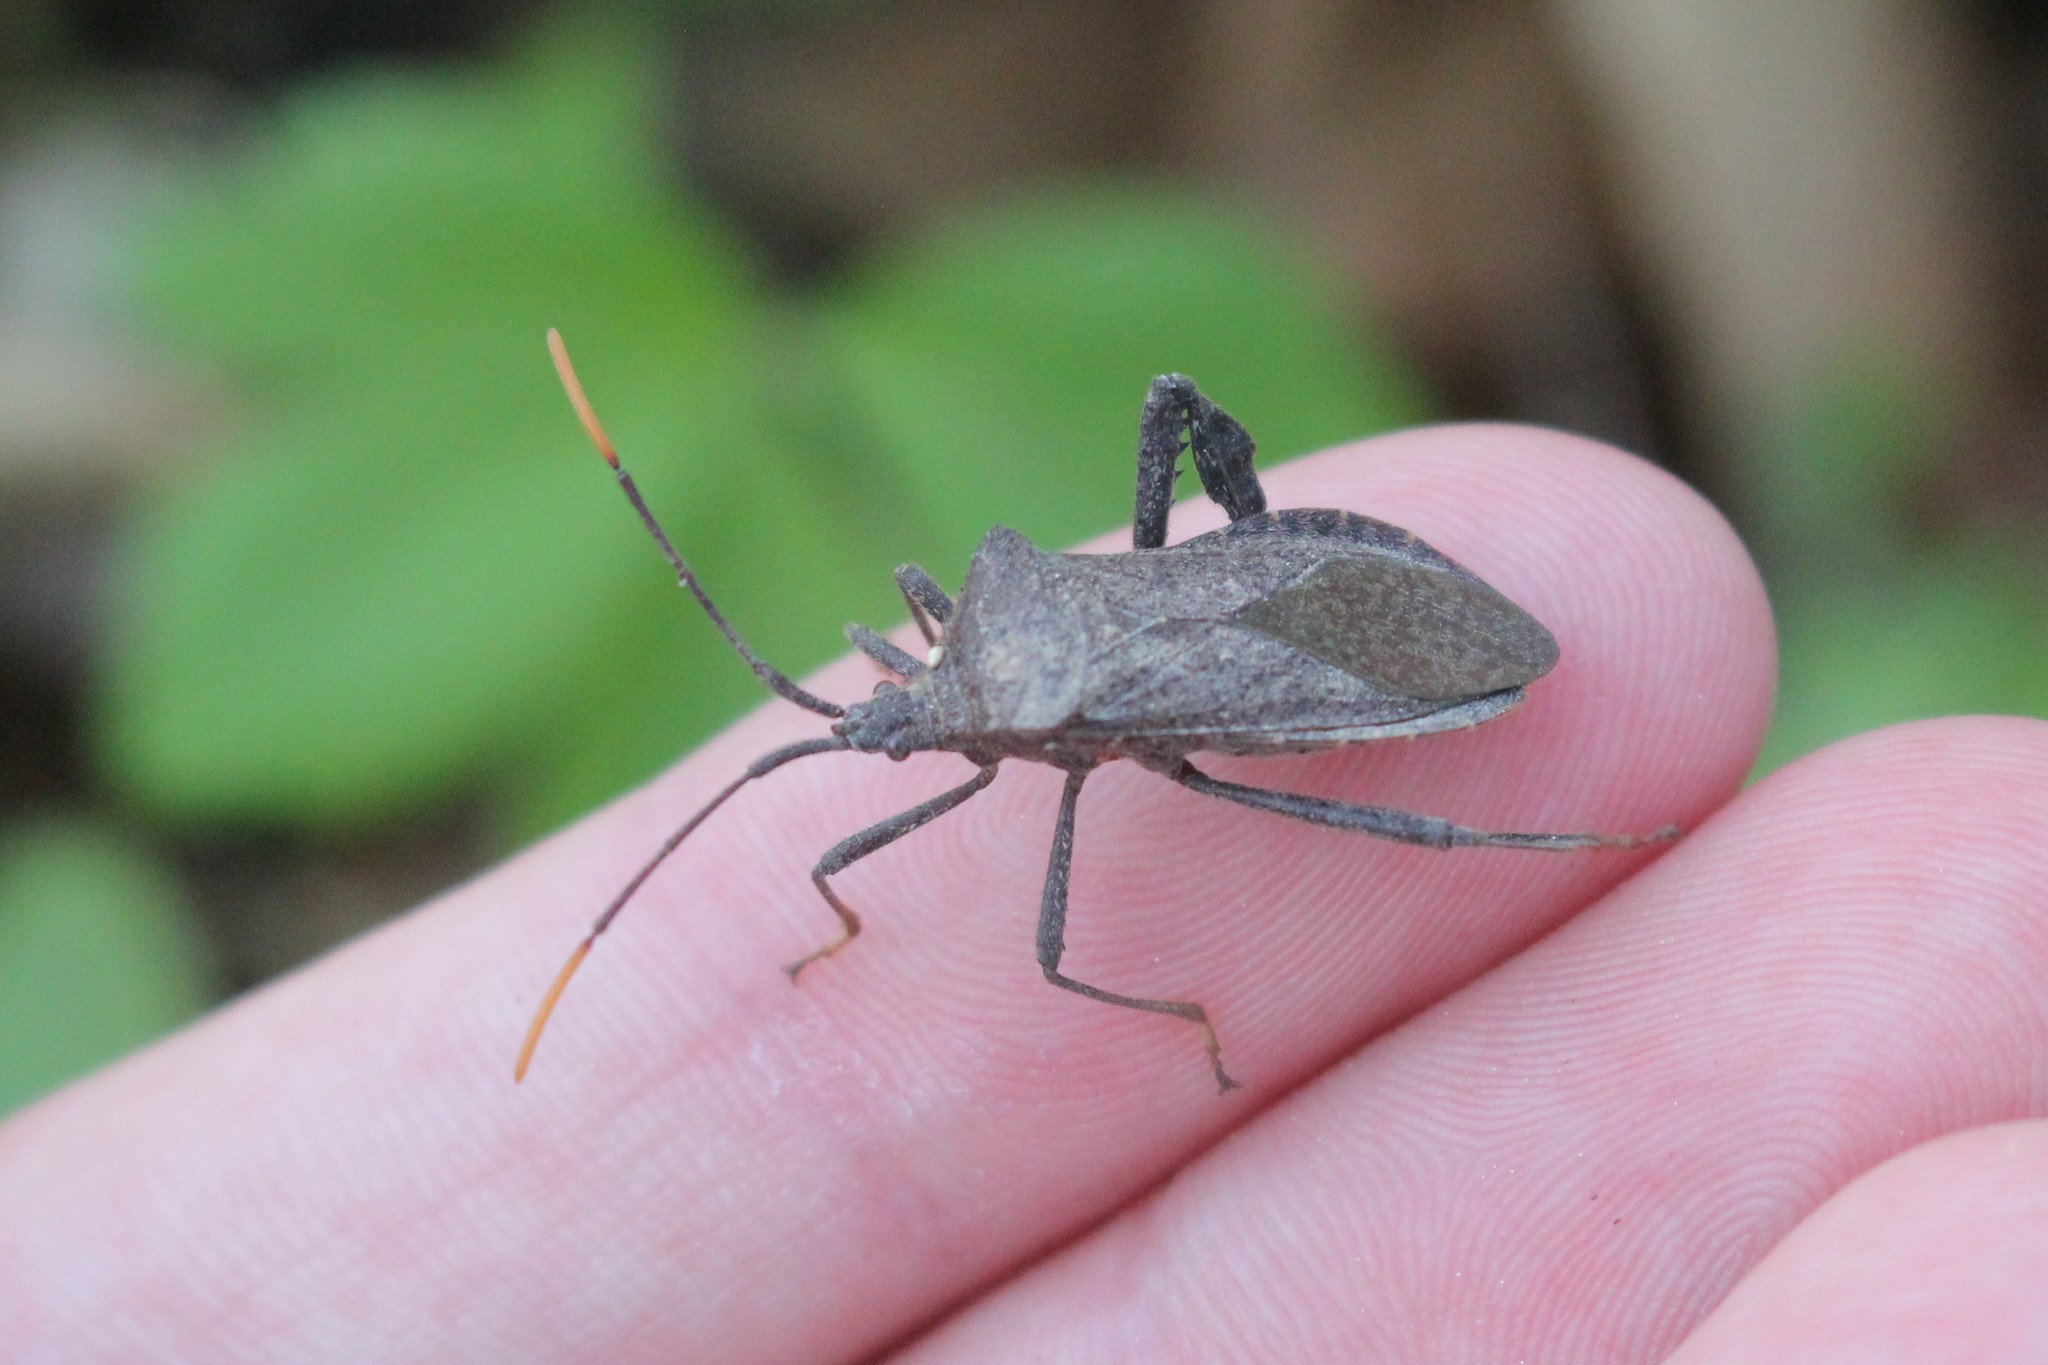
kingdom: Animalia
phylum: Arthropoda
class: Insecta
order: Hemiptera
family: Coreidae
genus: Acanthocephala
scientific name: Acanthocephala terminalis
